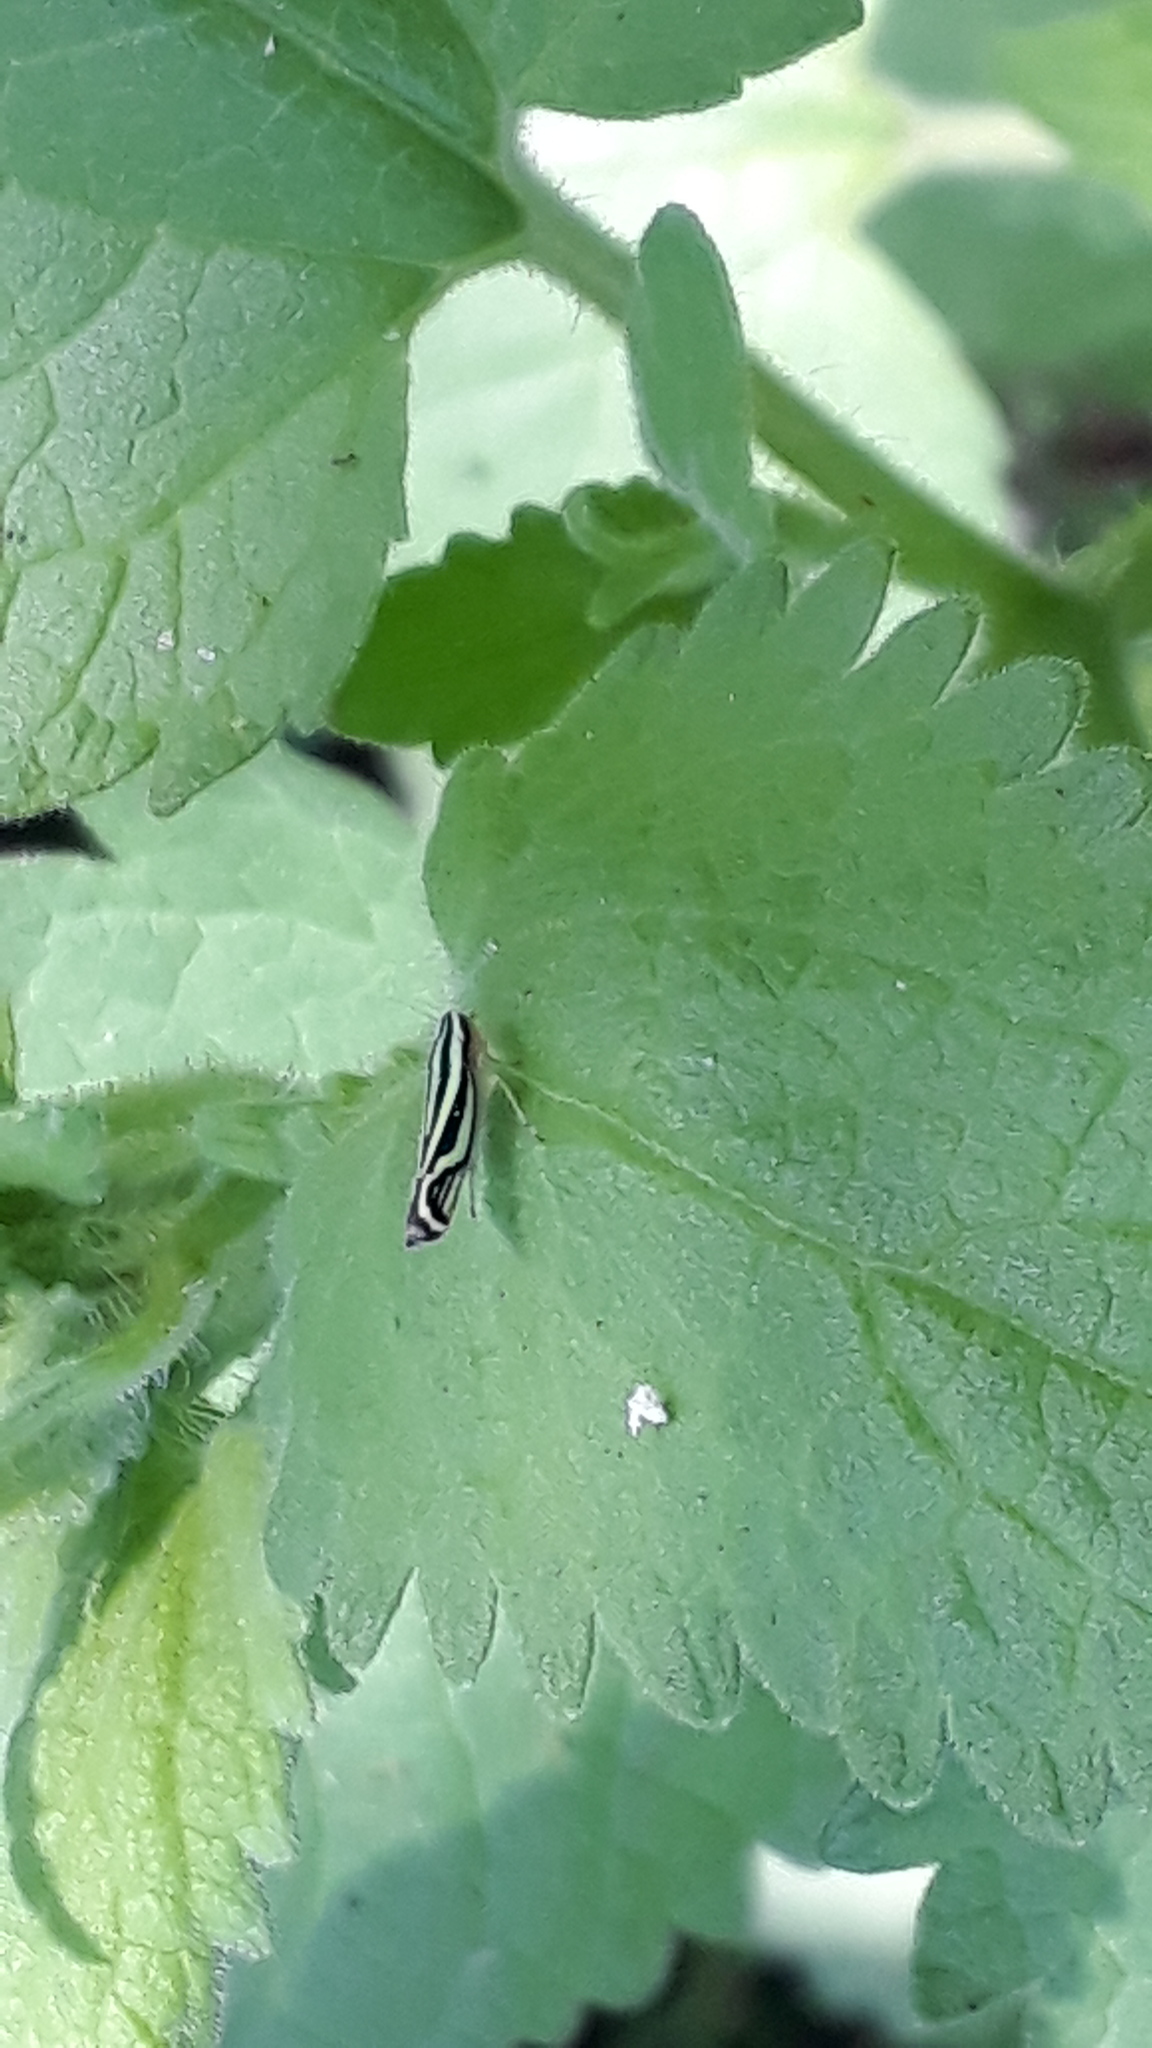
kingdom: Animalia
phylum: Arthropoda
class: Insecta
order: Hemiptera
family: Cicadellidae
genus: Sibovia
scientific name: Sibovia sagata
